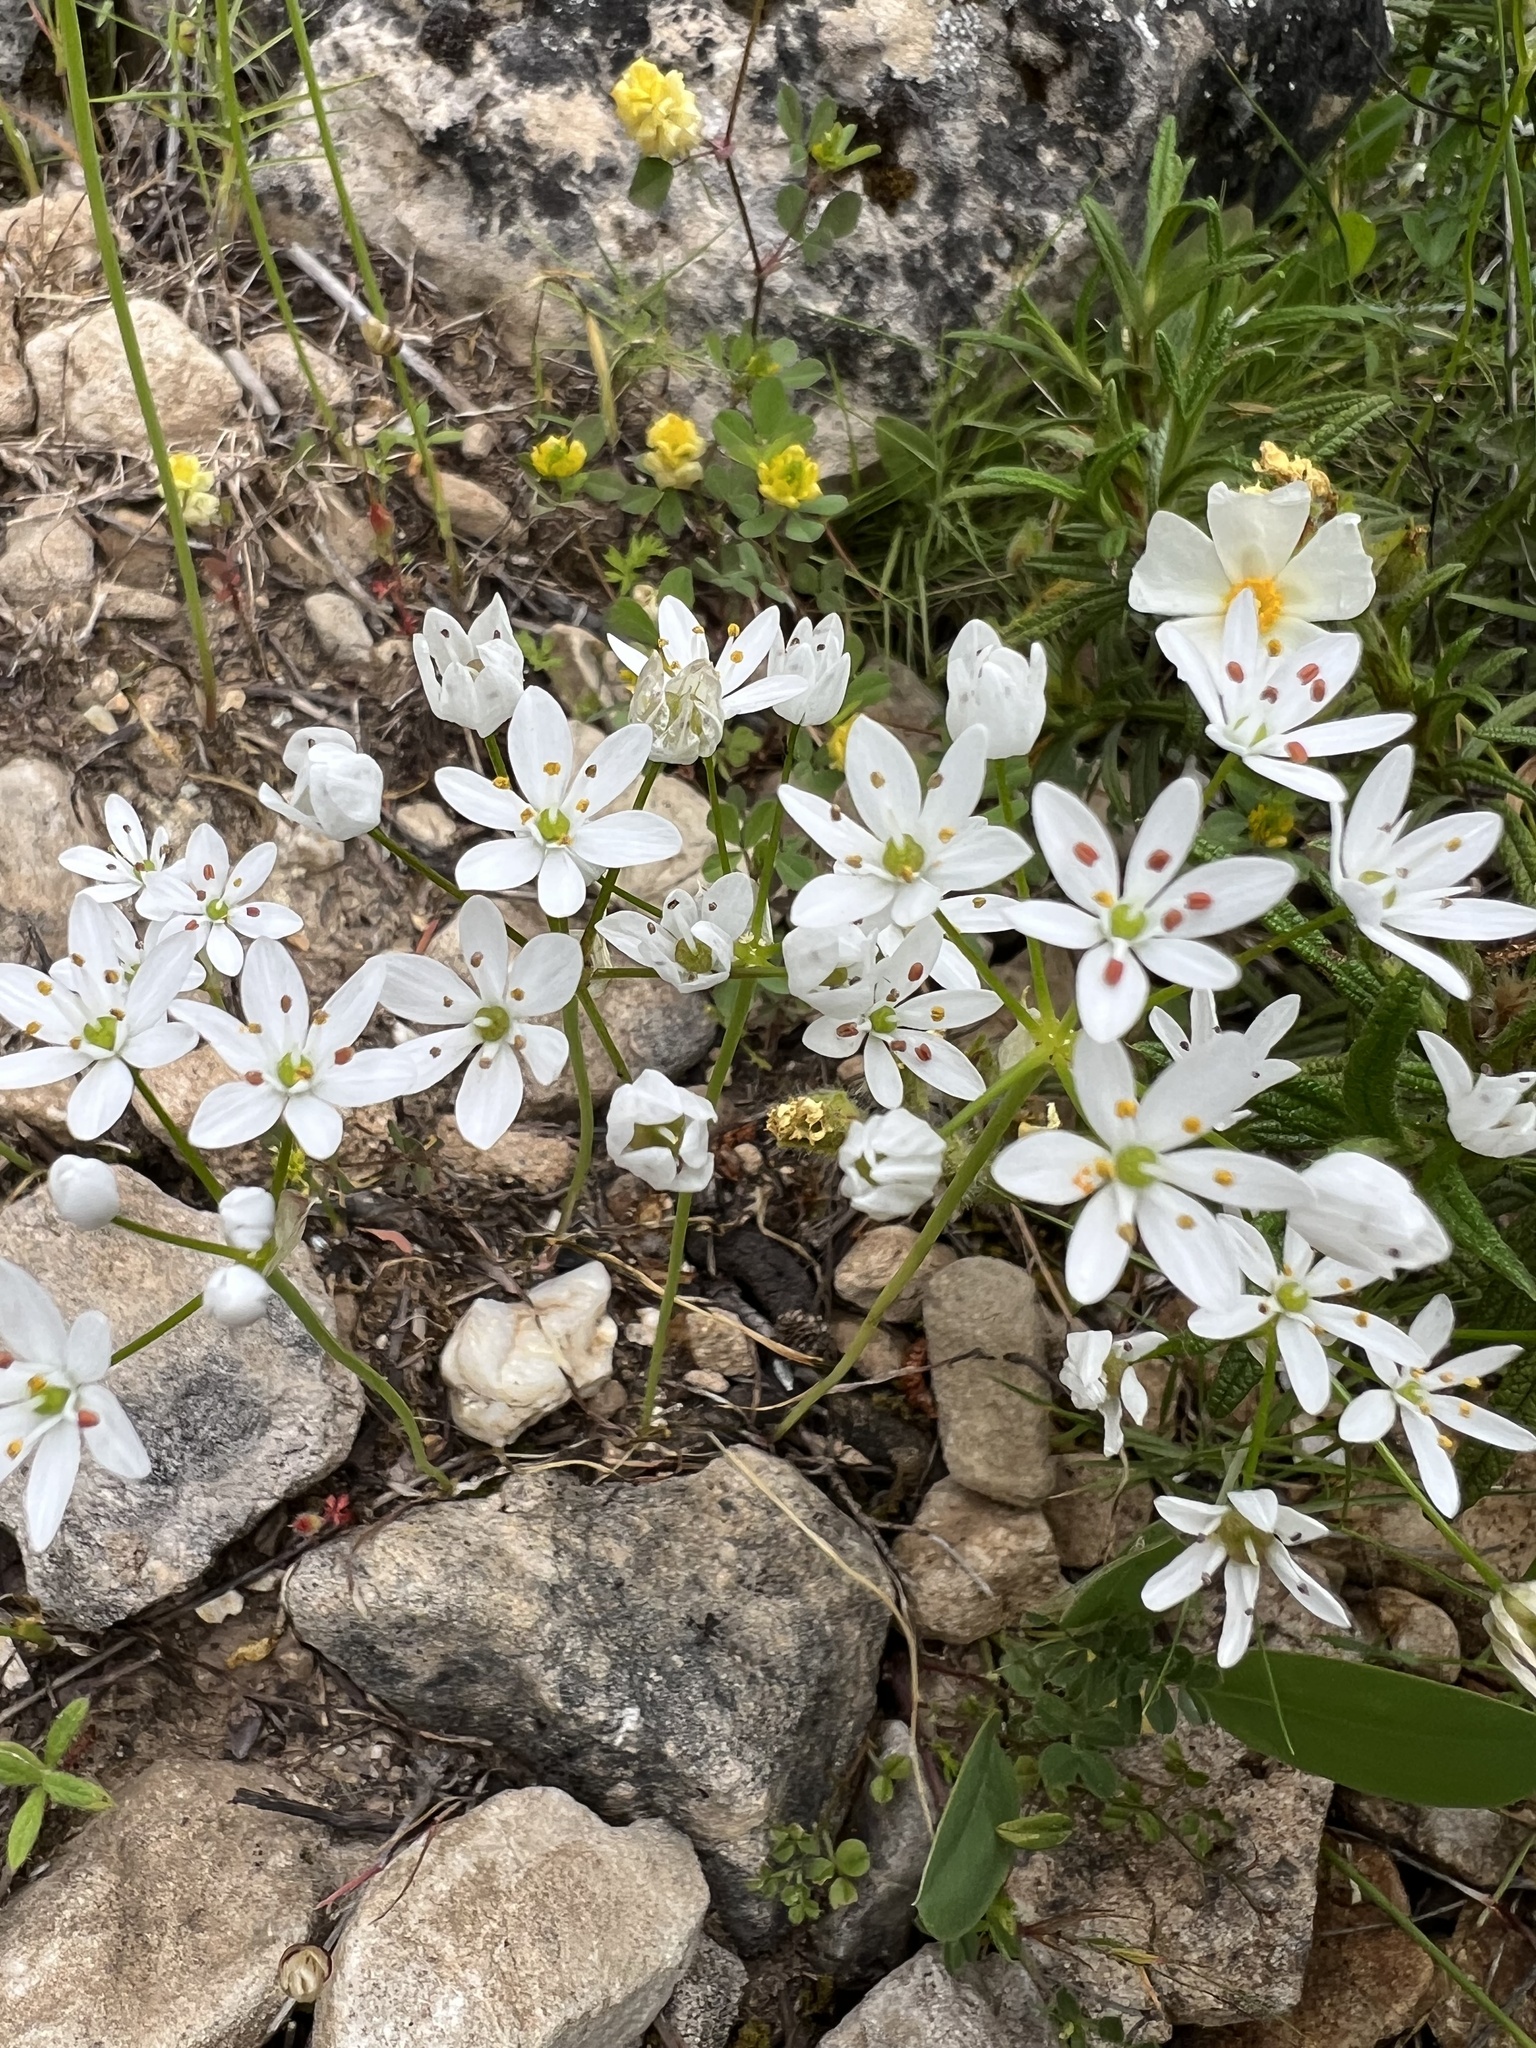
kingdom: Plantae
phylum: Tracheophyta
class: Liliopsida
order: Asparagales
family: Amaryllidaceae
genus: Allium
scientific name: Allium subhirsutum
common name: Hairy garlic
